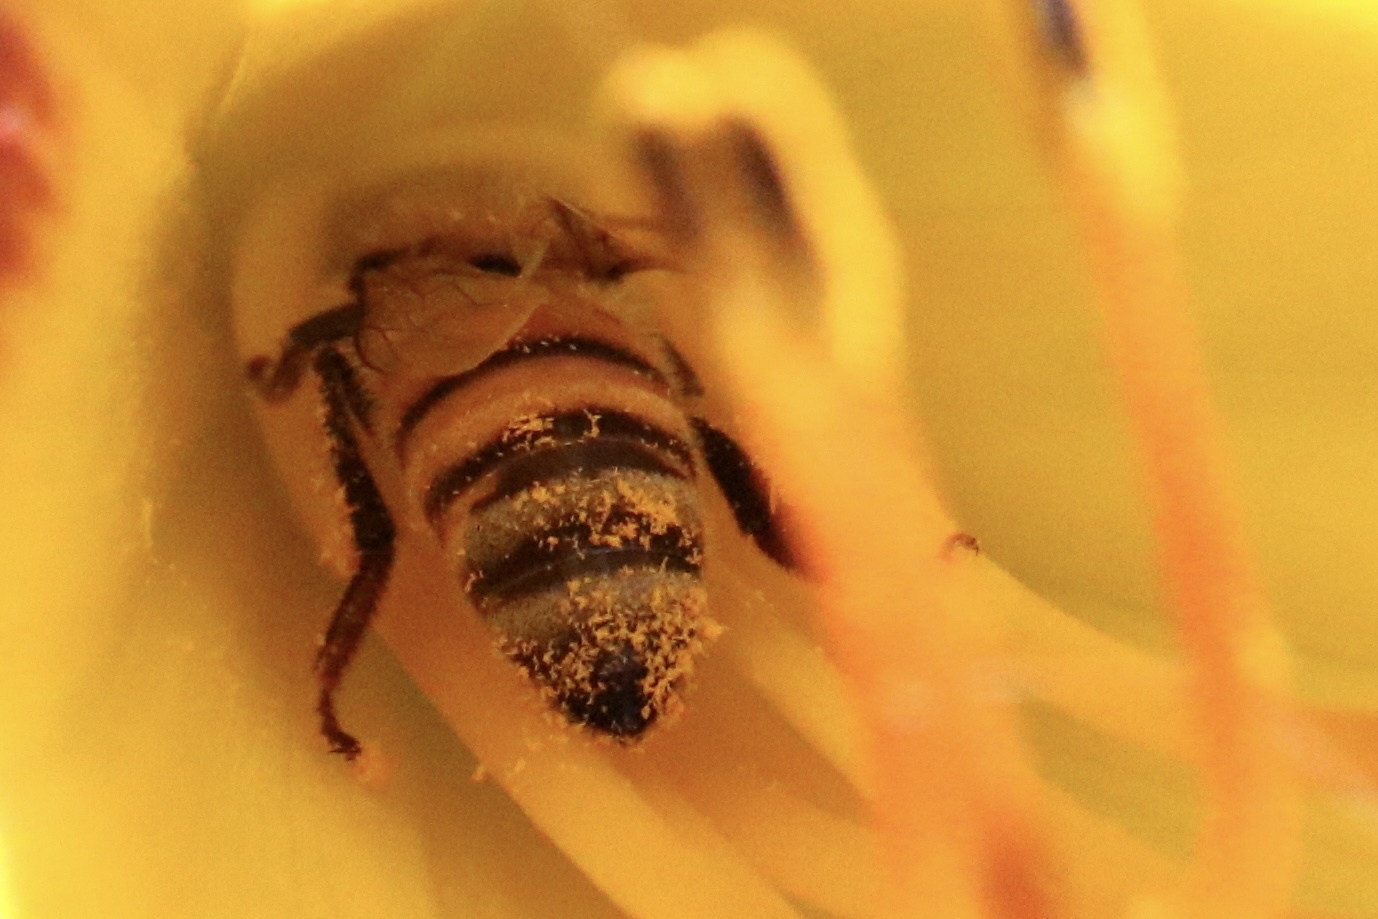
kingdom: Animalia
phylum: Arthropoda
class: Insecta
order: Hymenoptera
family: Apidae
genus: Apis
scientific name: Apis mellifera
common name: Honey bee
